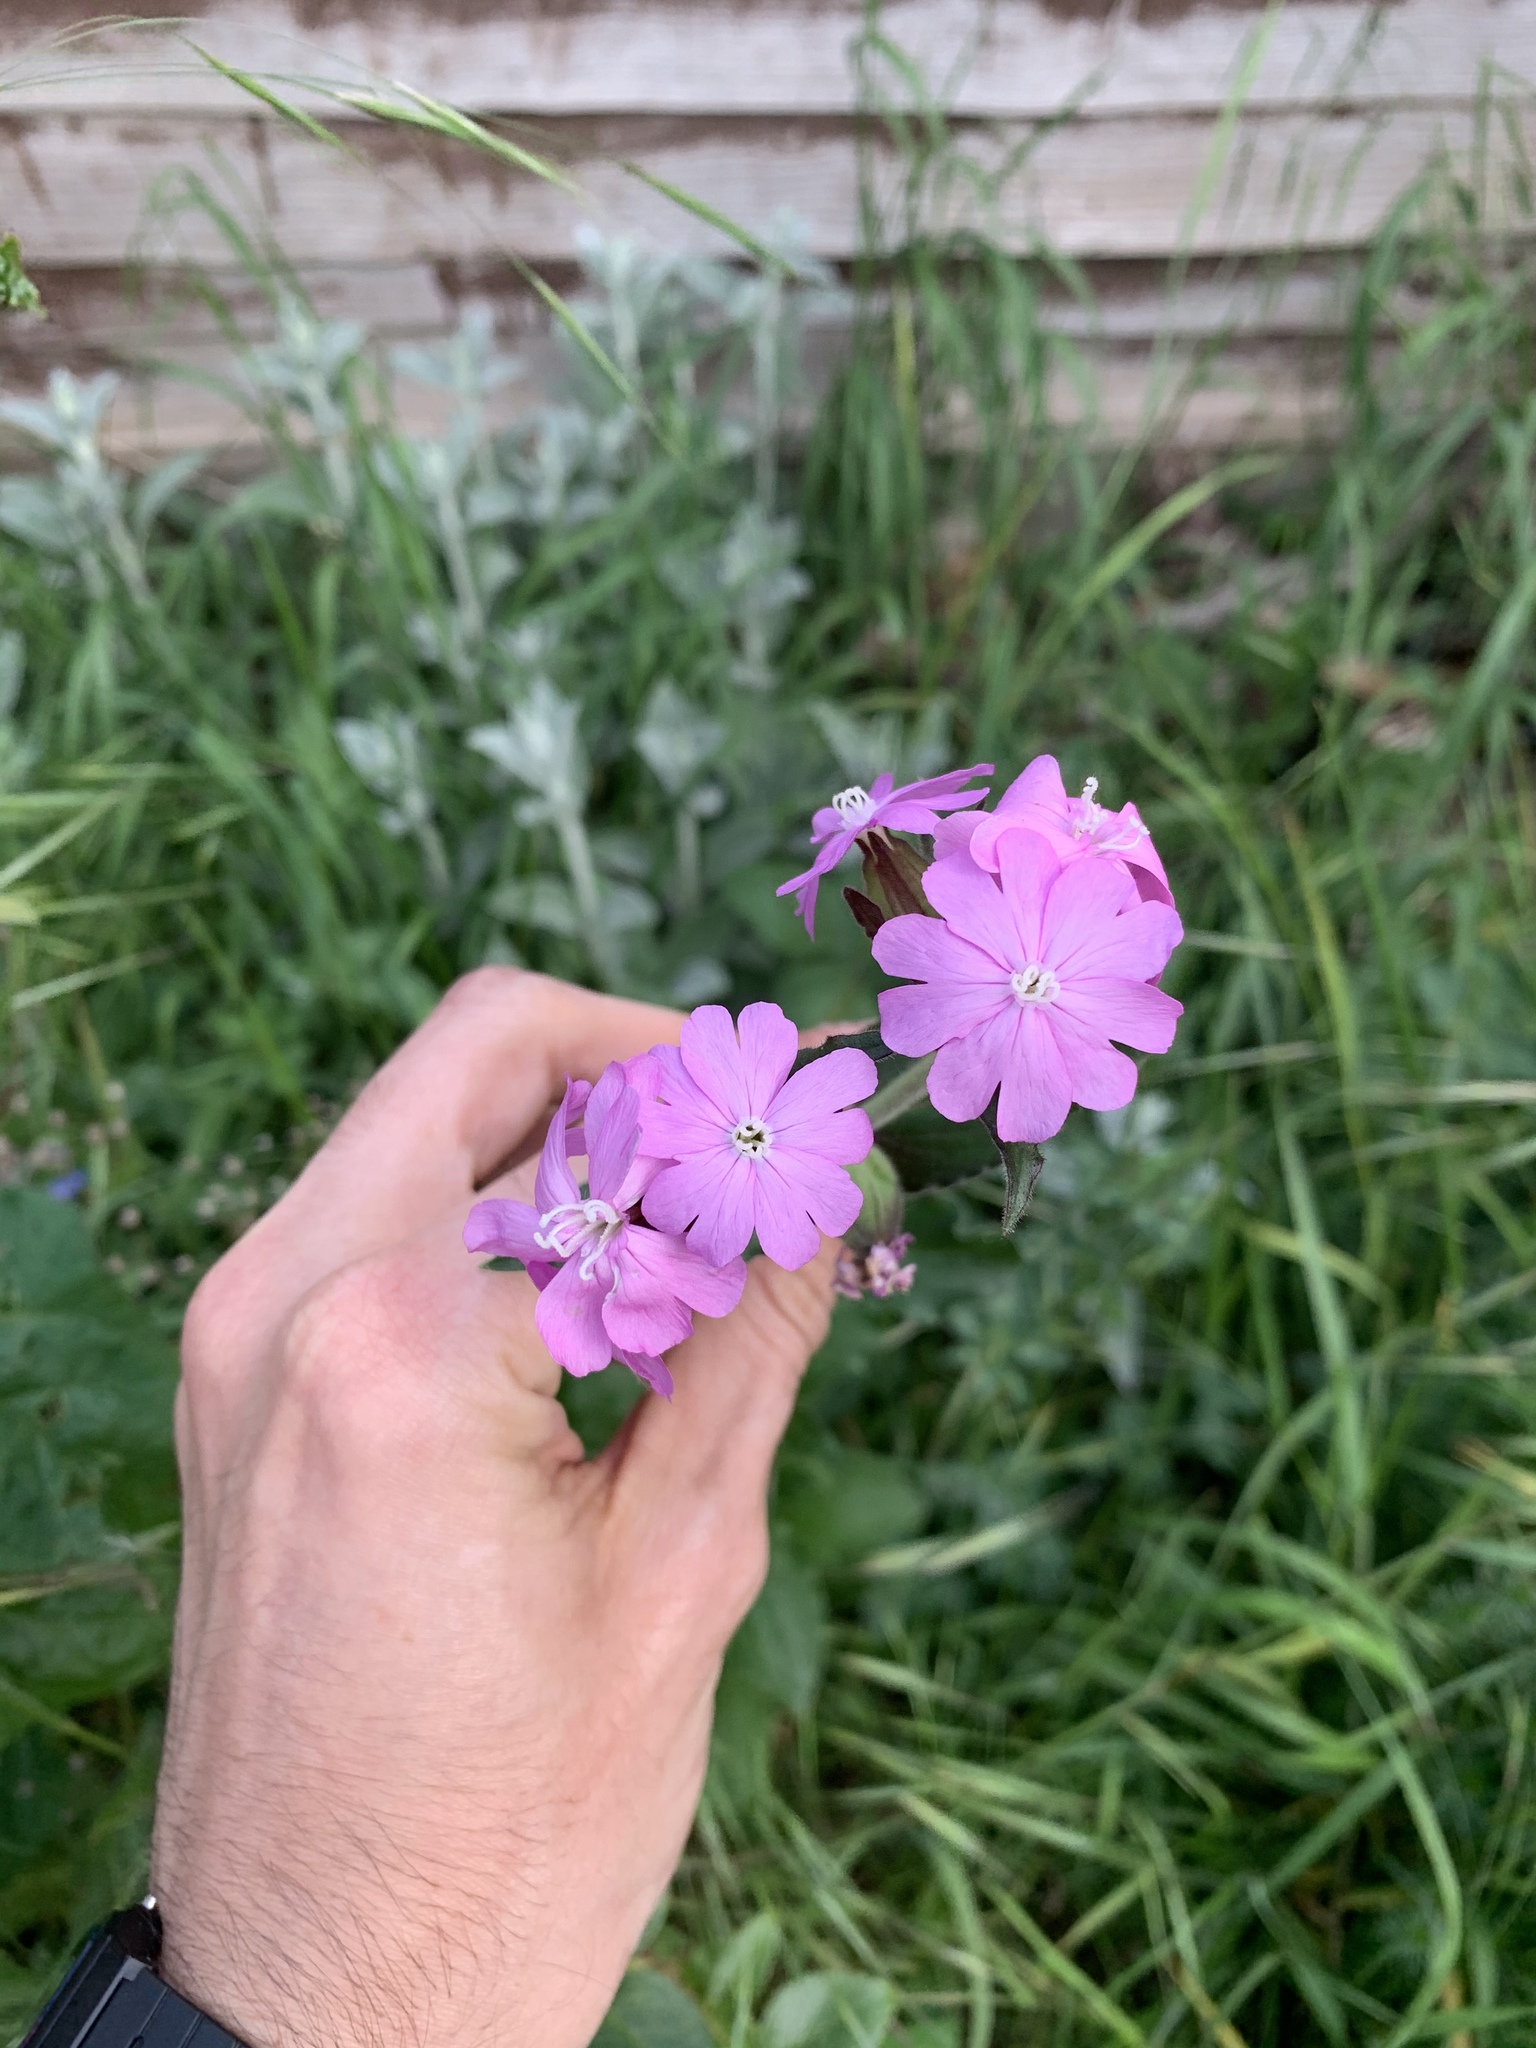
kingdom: Plantae
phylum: Tracheophyta
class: Magnoliopsida
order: Caryophyllales
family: Caryophyllaceae
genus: Silene
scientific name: Silene dioica
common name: Red campion
